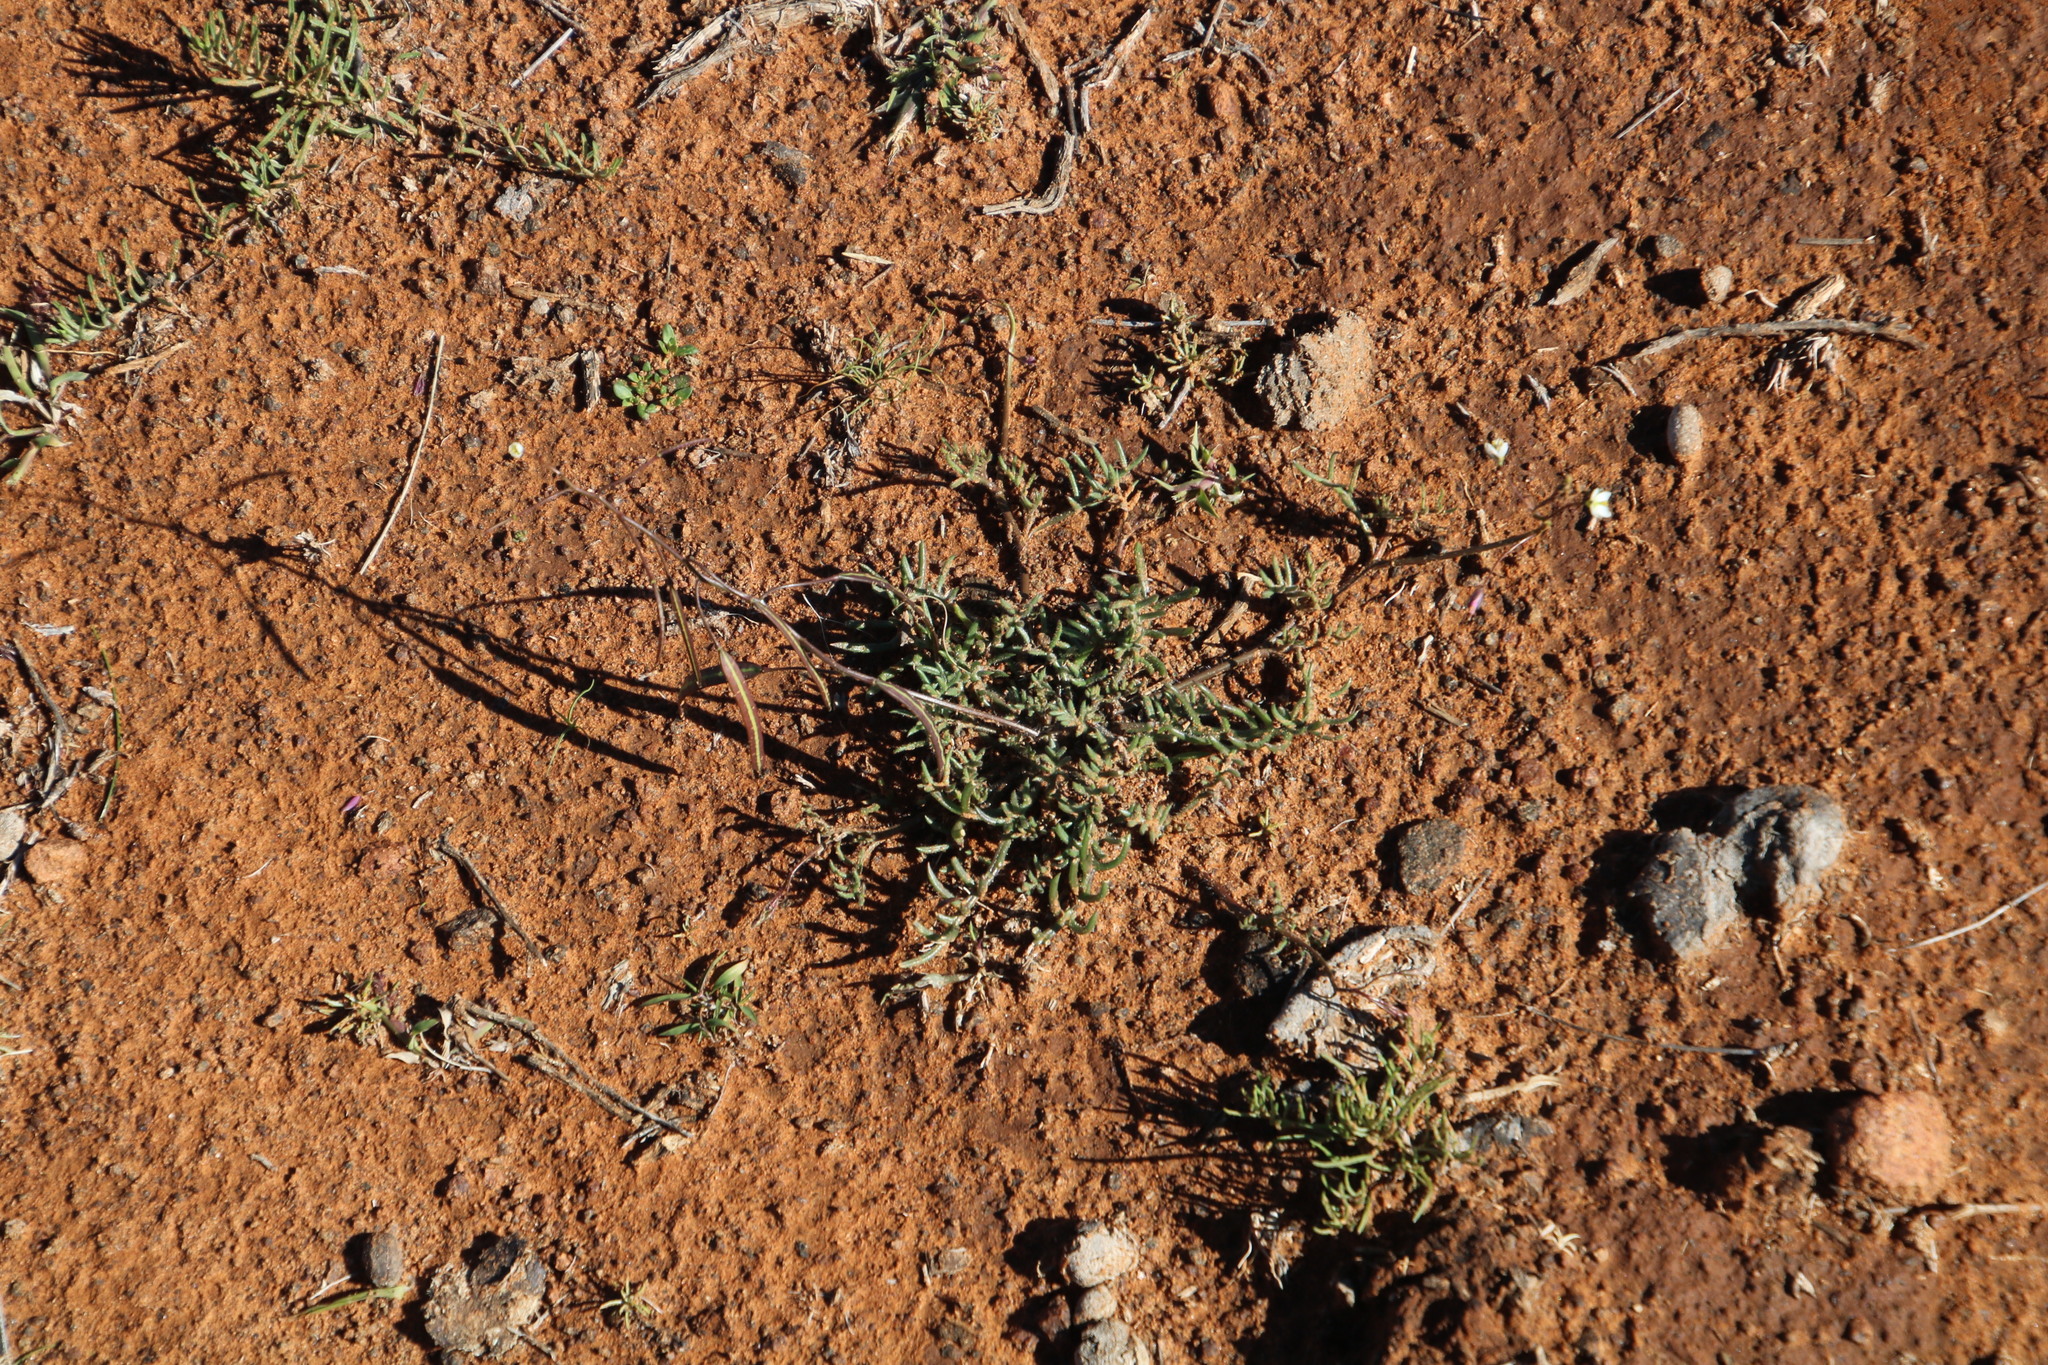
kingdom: Plantae
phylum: Tracheophyta
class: Magnoliopsida
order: Brassicales
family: Brassicaceae
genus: Heliophila
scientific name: Heliophila crithmifolia
